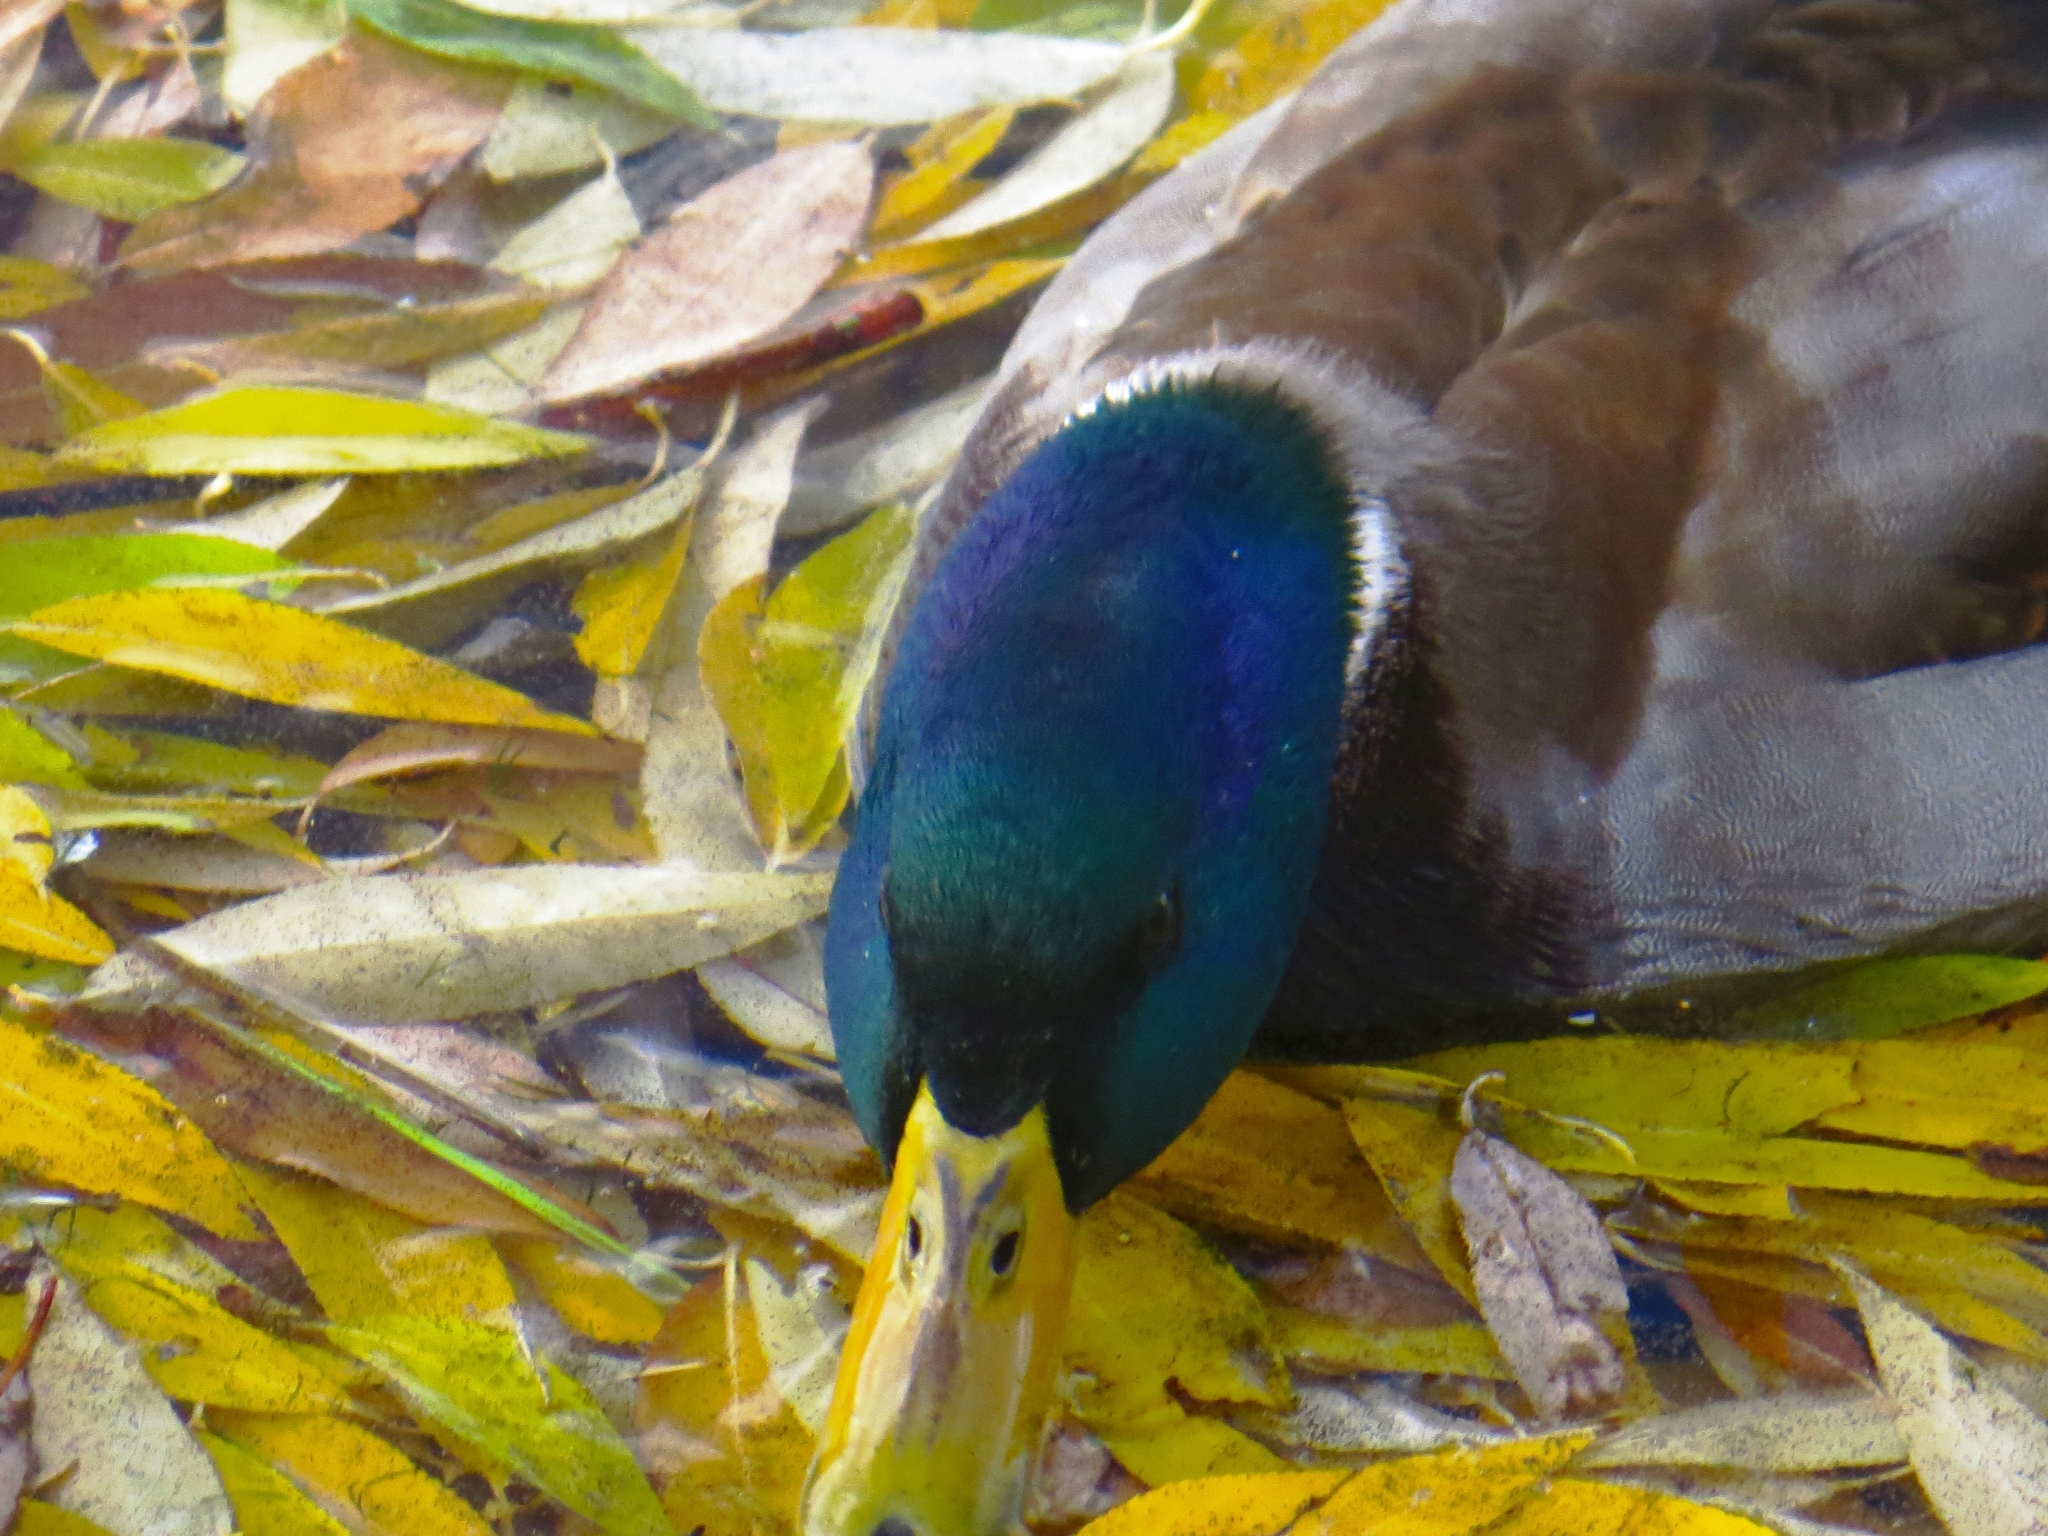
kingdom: Animalia
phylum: Chordata
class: Aves
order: Anseriformes
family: Anatidae
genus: Anas
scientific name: Anas platyrhynchos
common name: Mallard
